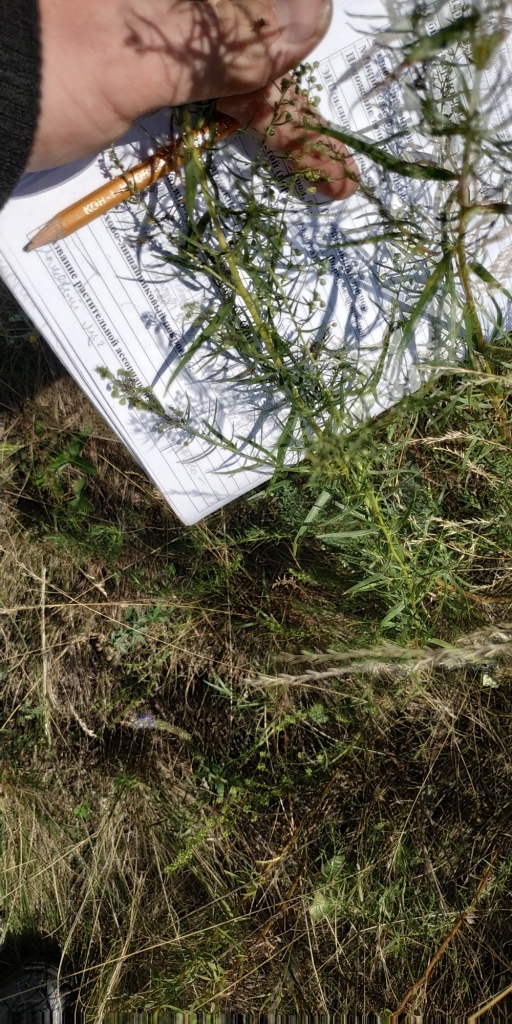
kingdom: Plantae
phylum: Tracheophyta
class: Magnoliopsida
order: Asterales
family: Asteraceae
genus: Artemisia
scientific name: Artemisia dracunculus
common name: Tarragon
